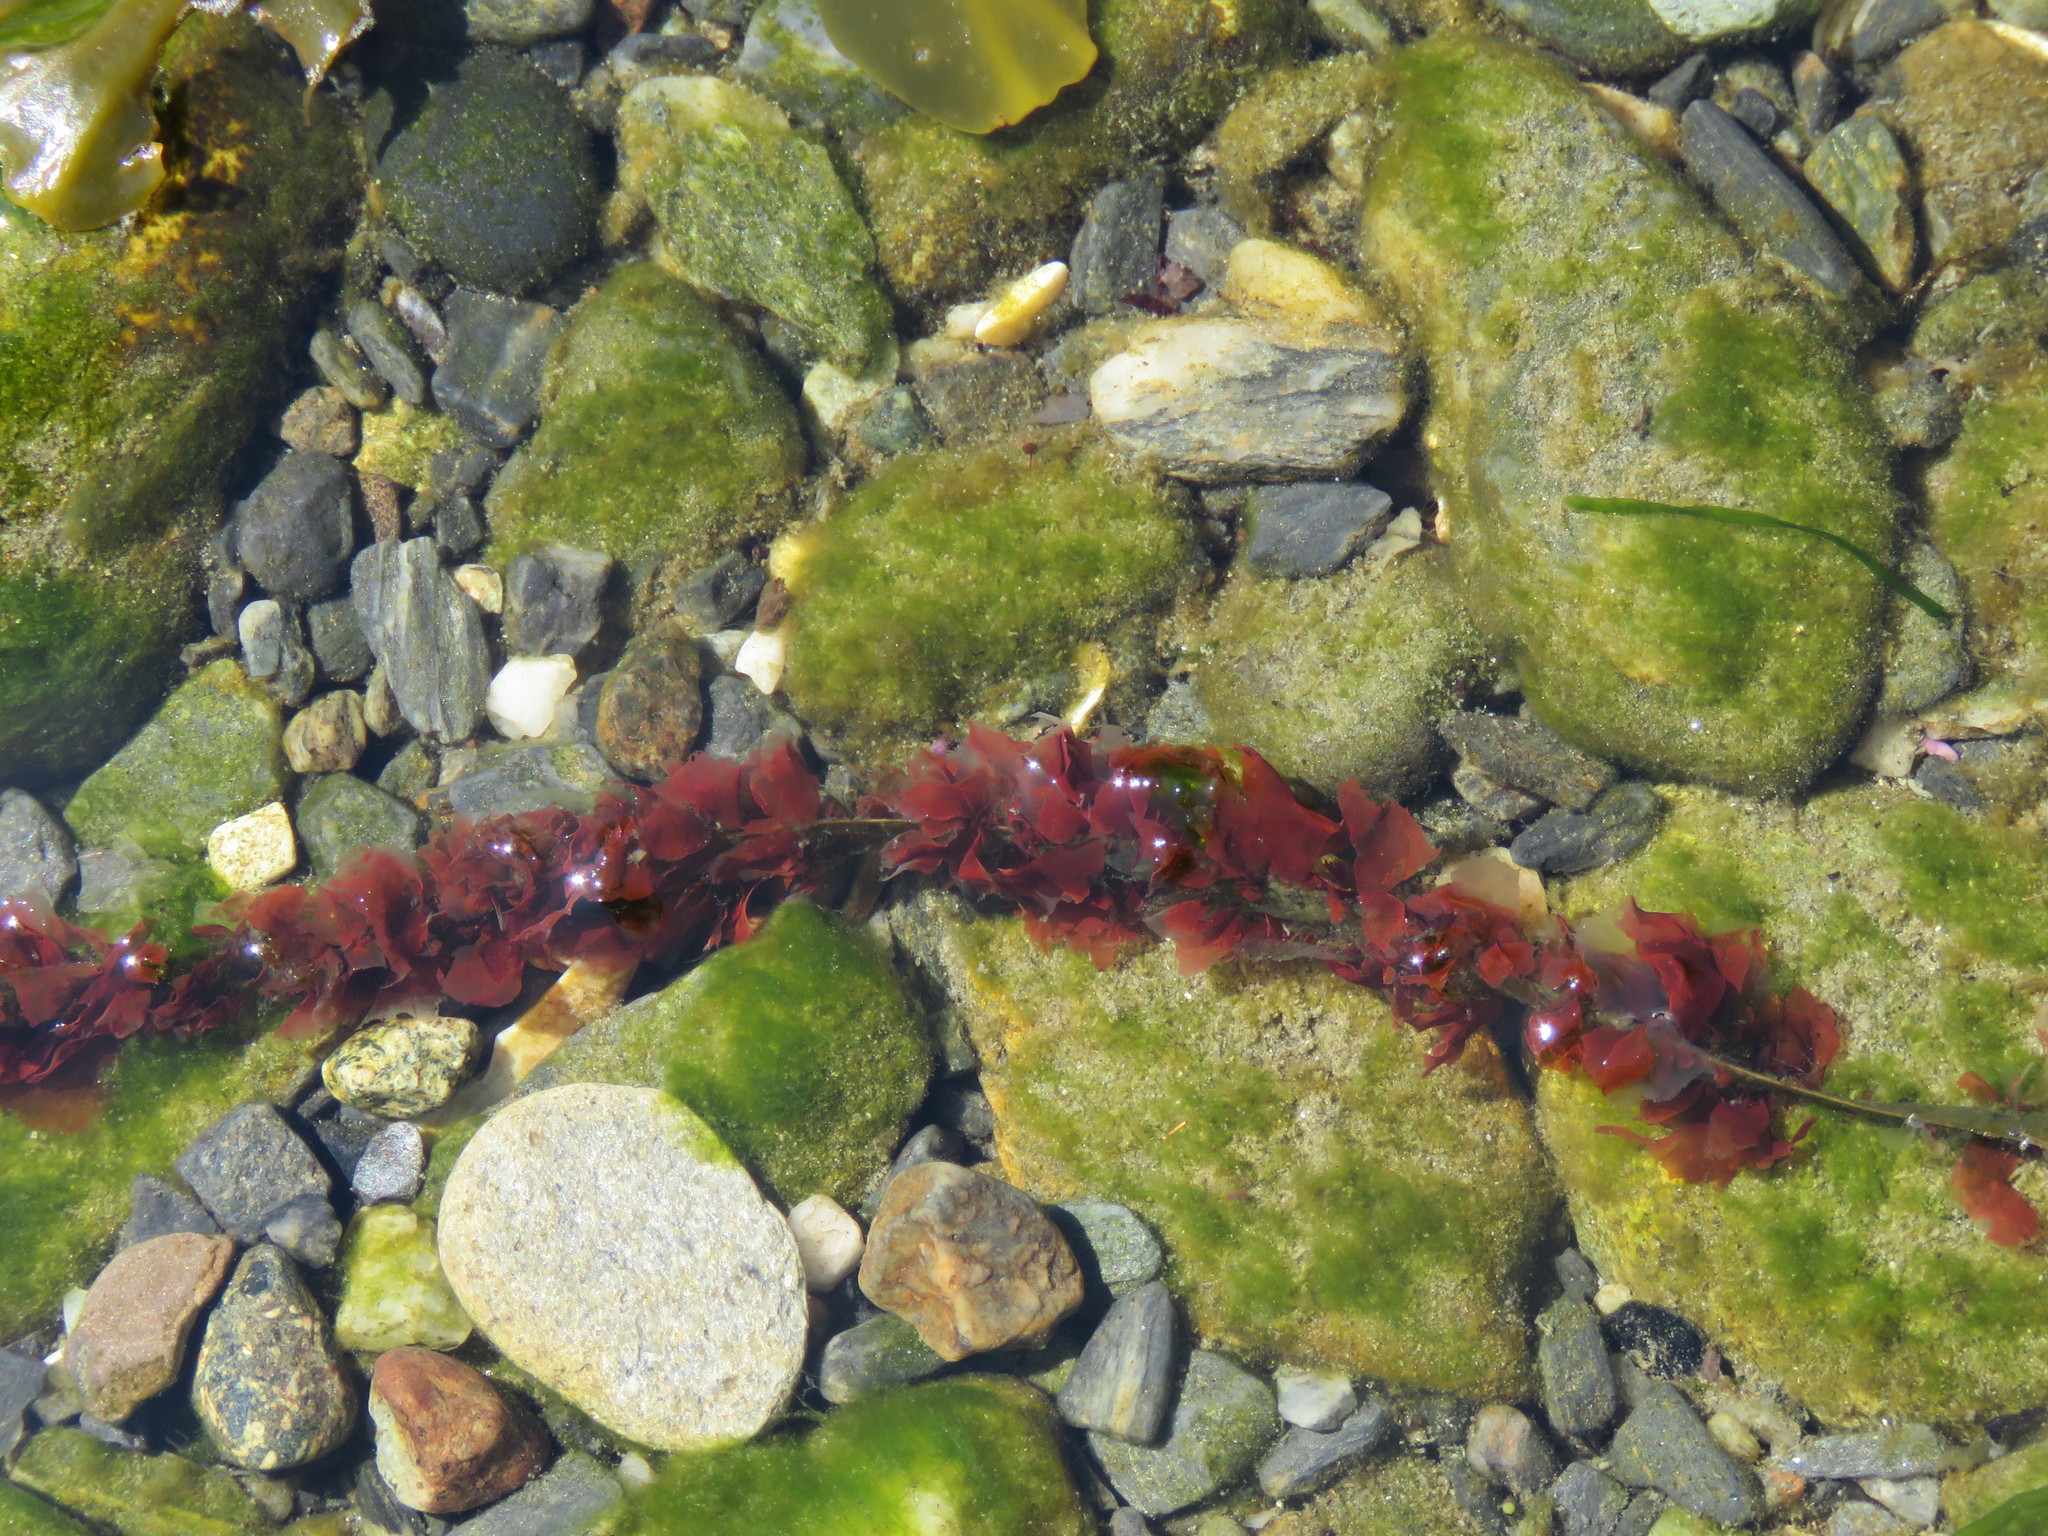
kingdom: Plantae
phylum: Rhodophyta
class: Compsopogonophyceae
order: Erythropeltidales
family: Erythrotrichiaceae
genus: Smithora
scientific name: Smithora naiadum
